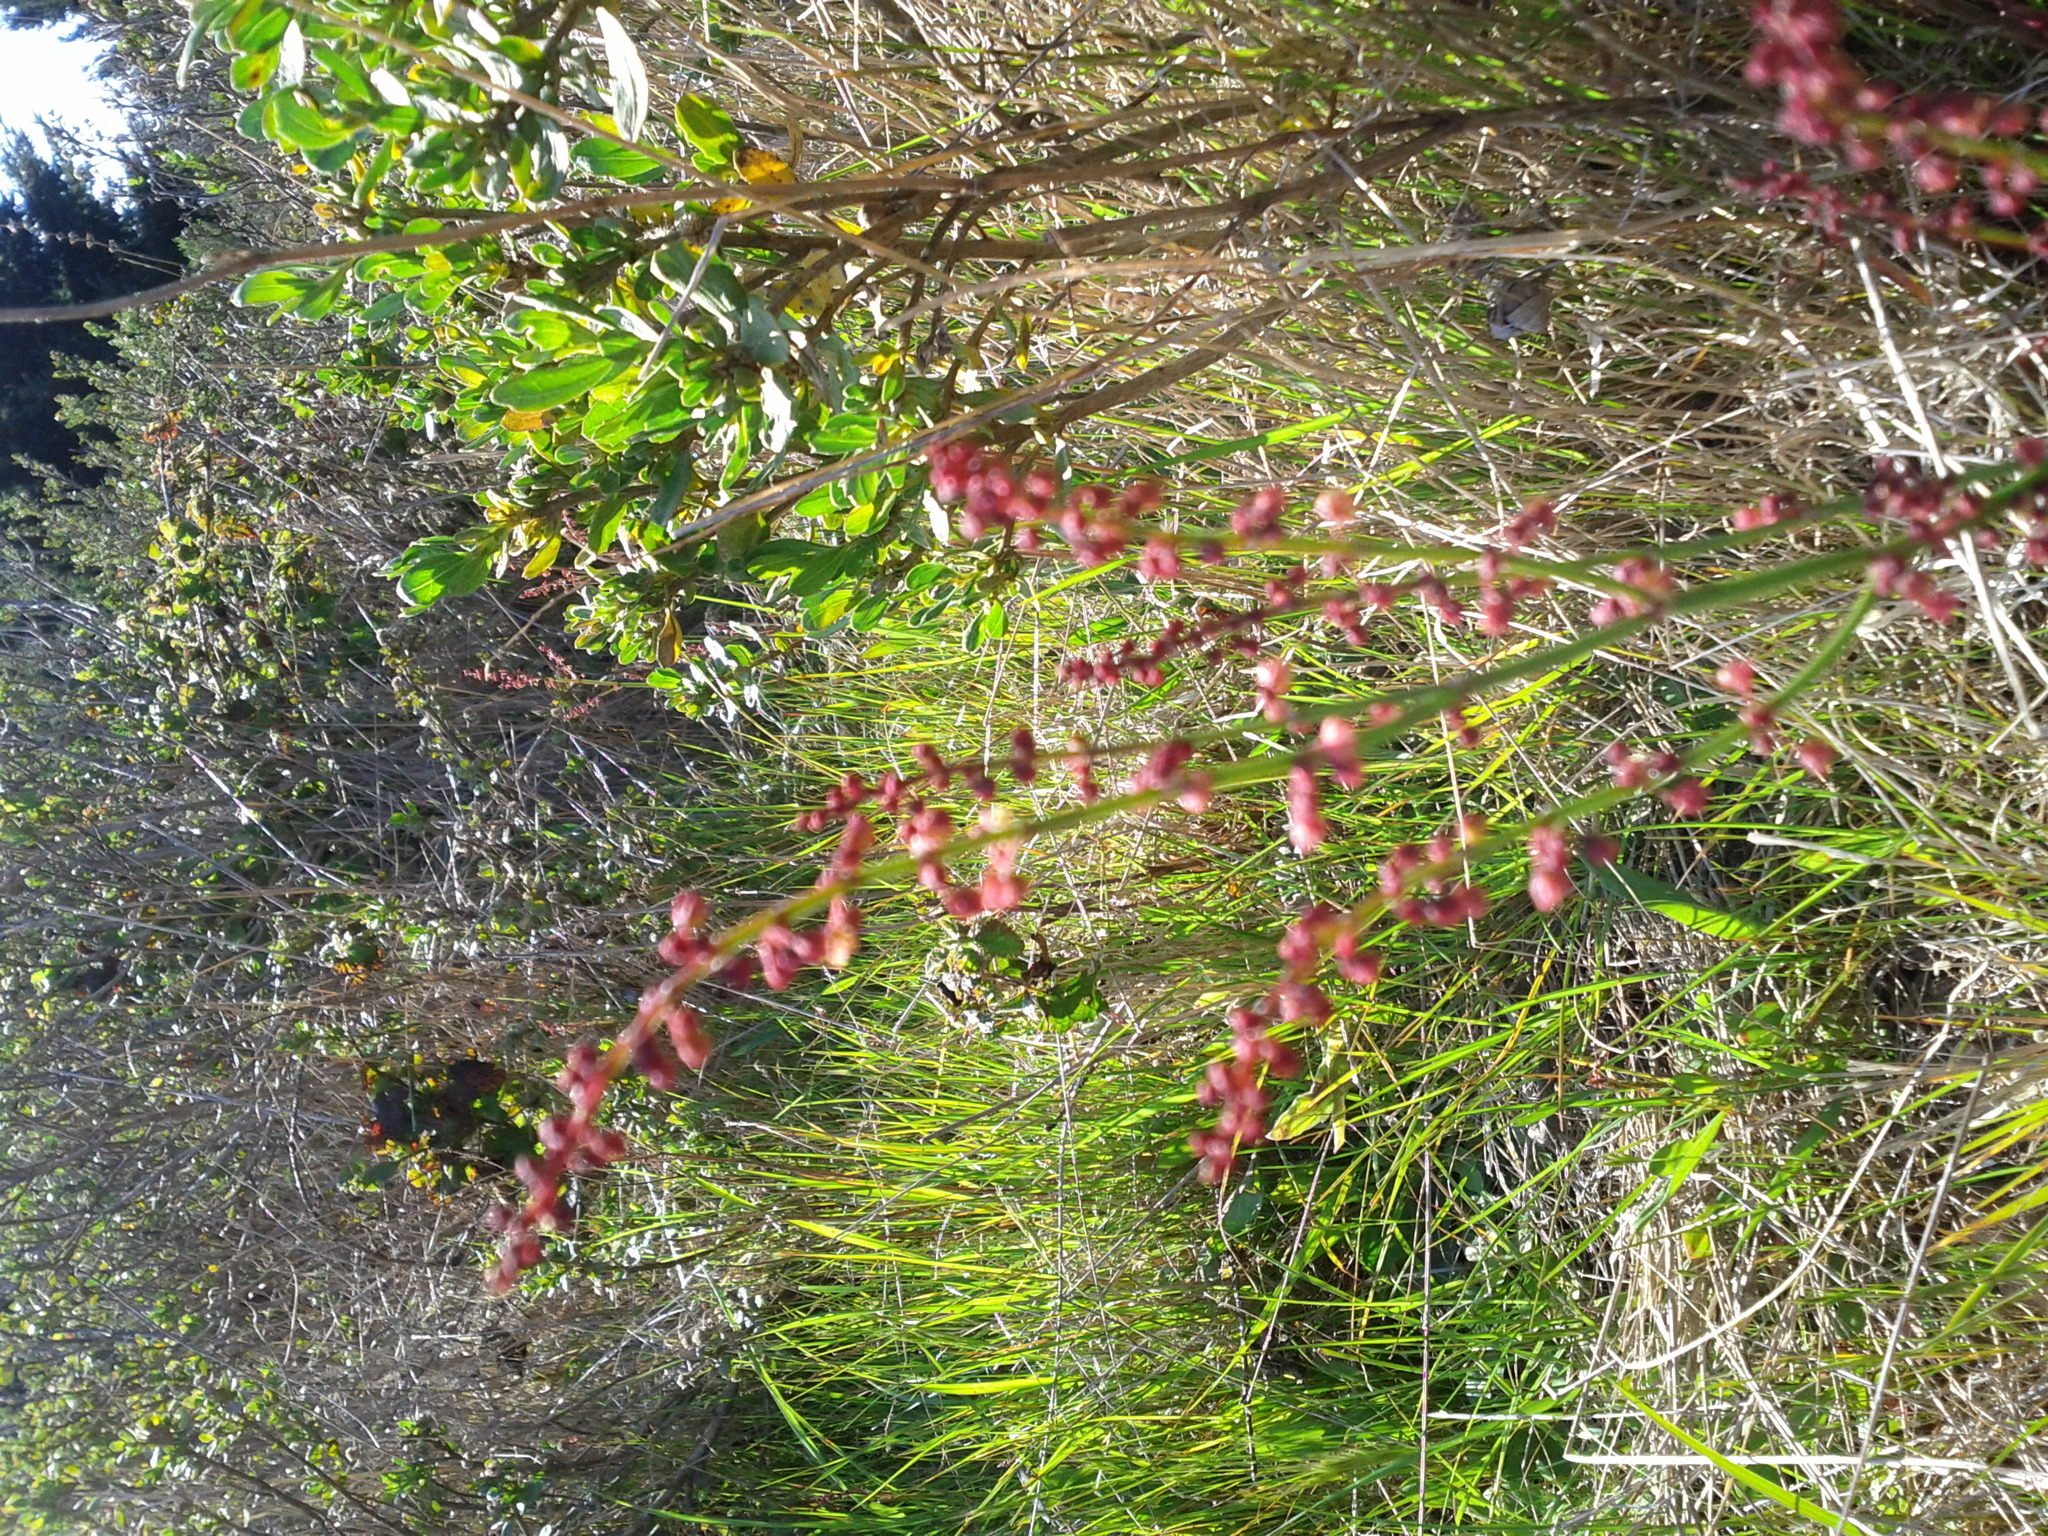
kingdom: Plantae
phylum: Tracheophyta
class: Magnoliopsida
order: Caryophyllales
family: Polygonaceae
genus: Rumex
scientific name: Rumex acetosella
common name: Common sheep sorrel
